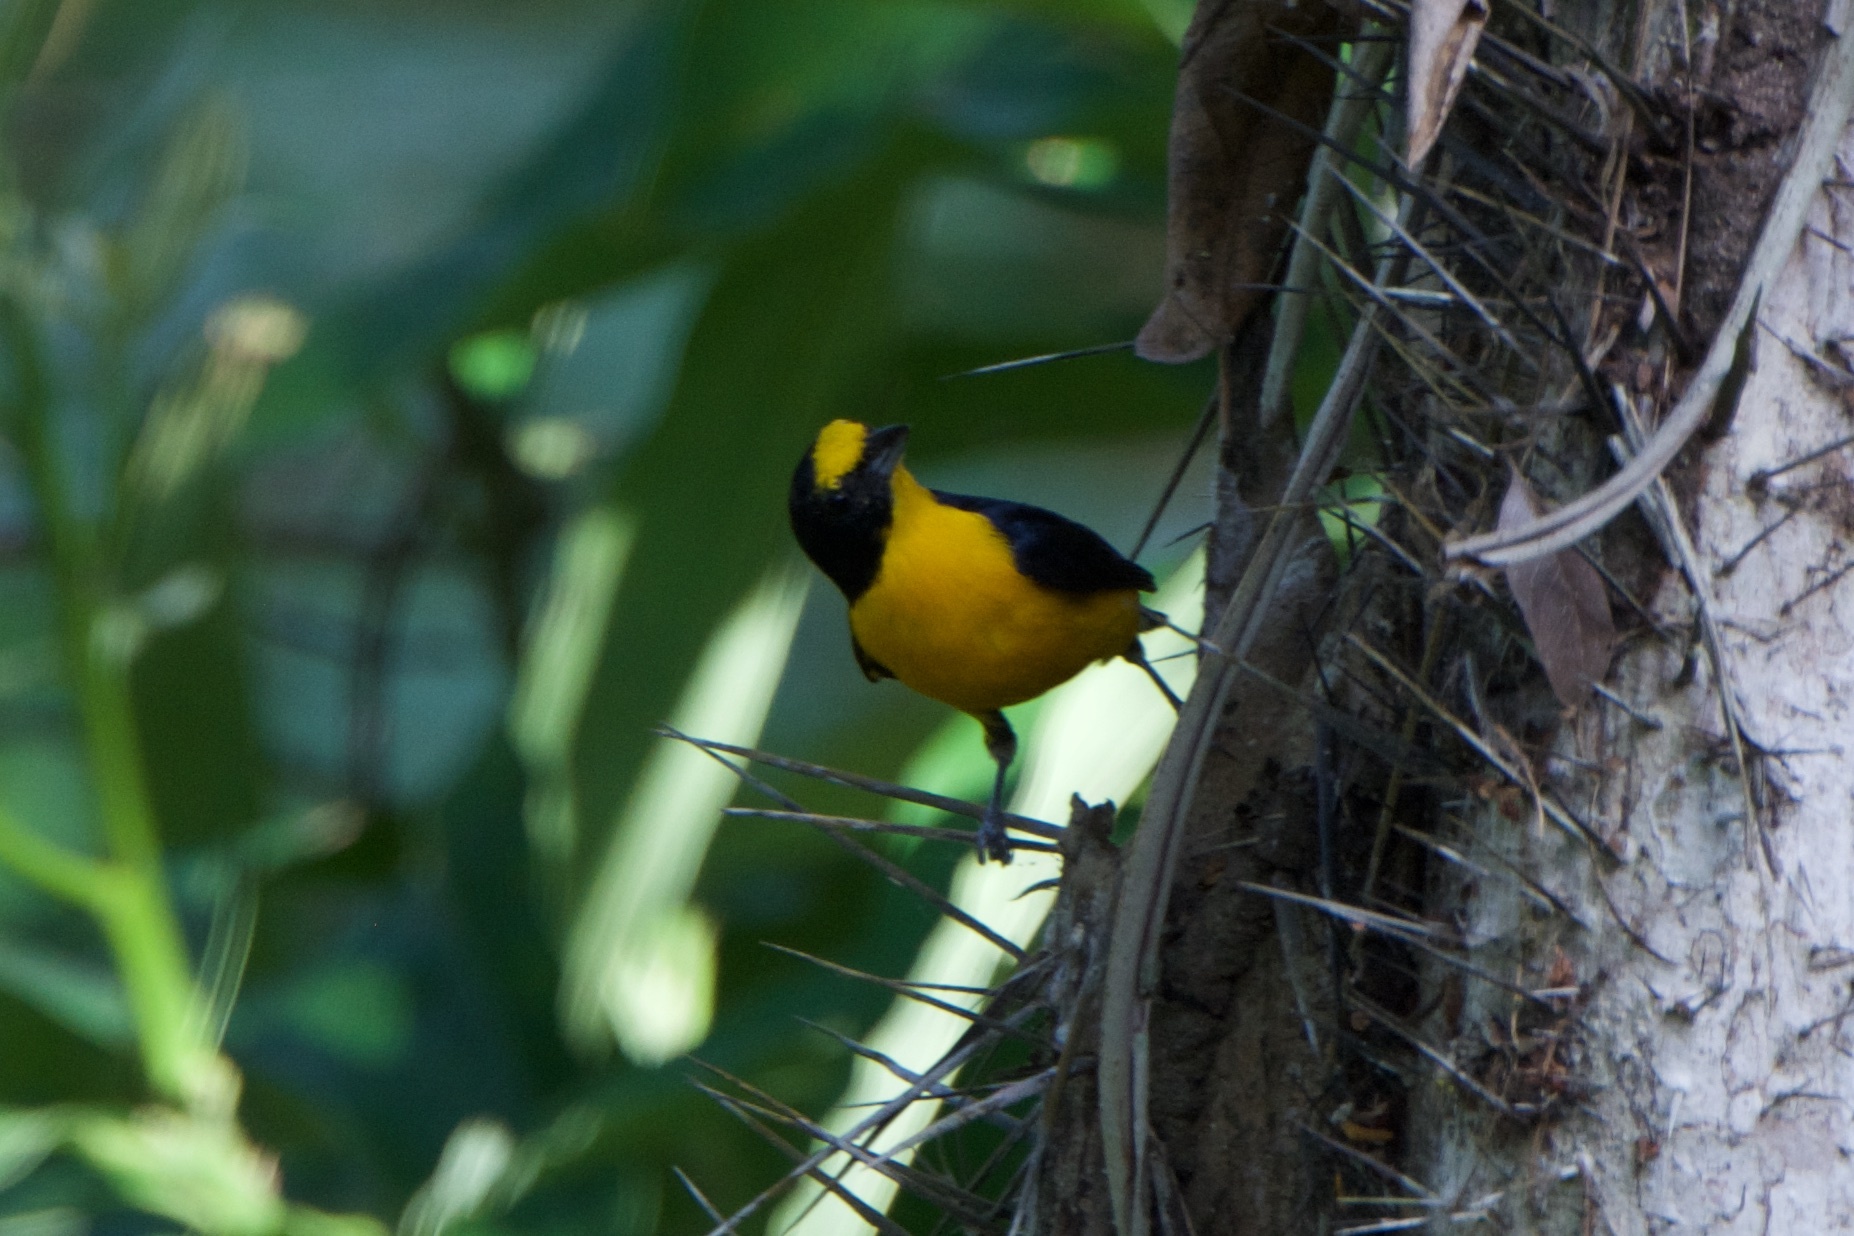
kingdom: Animalia
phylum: Chordata
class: Aves
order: Passeriformes
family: Fringillidae
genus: Euphonia
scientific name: Euphonia hirundinacea
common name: Yellow-throated euphonia
